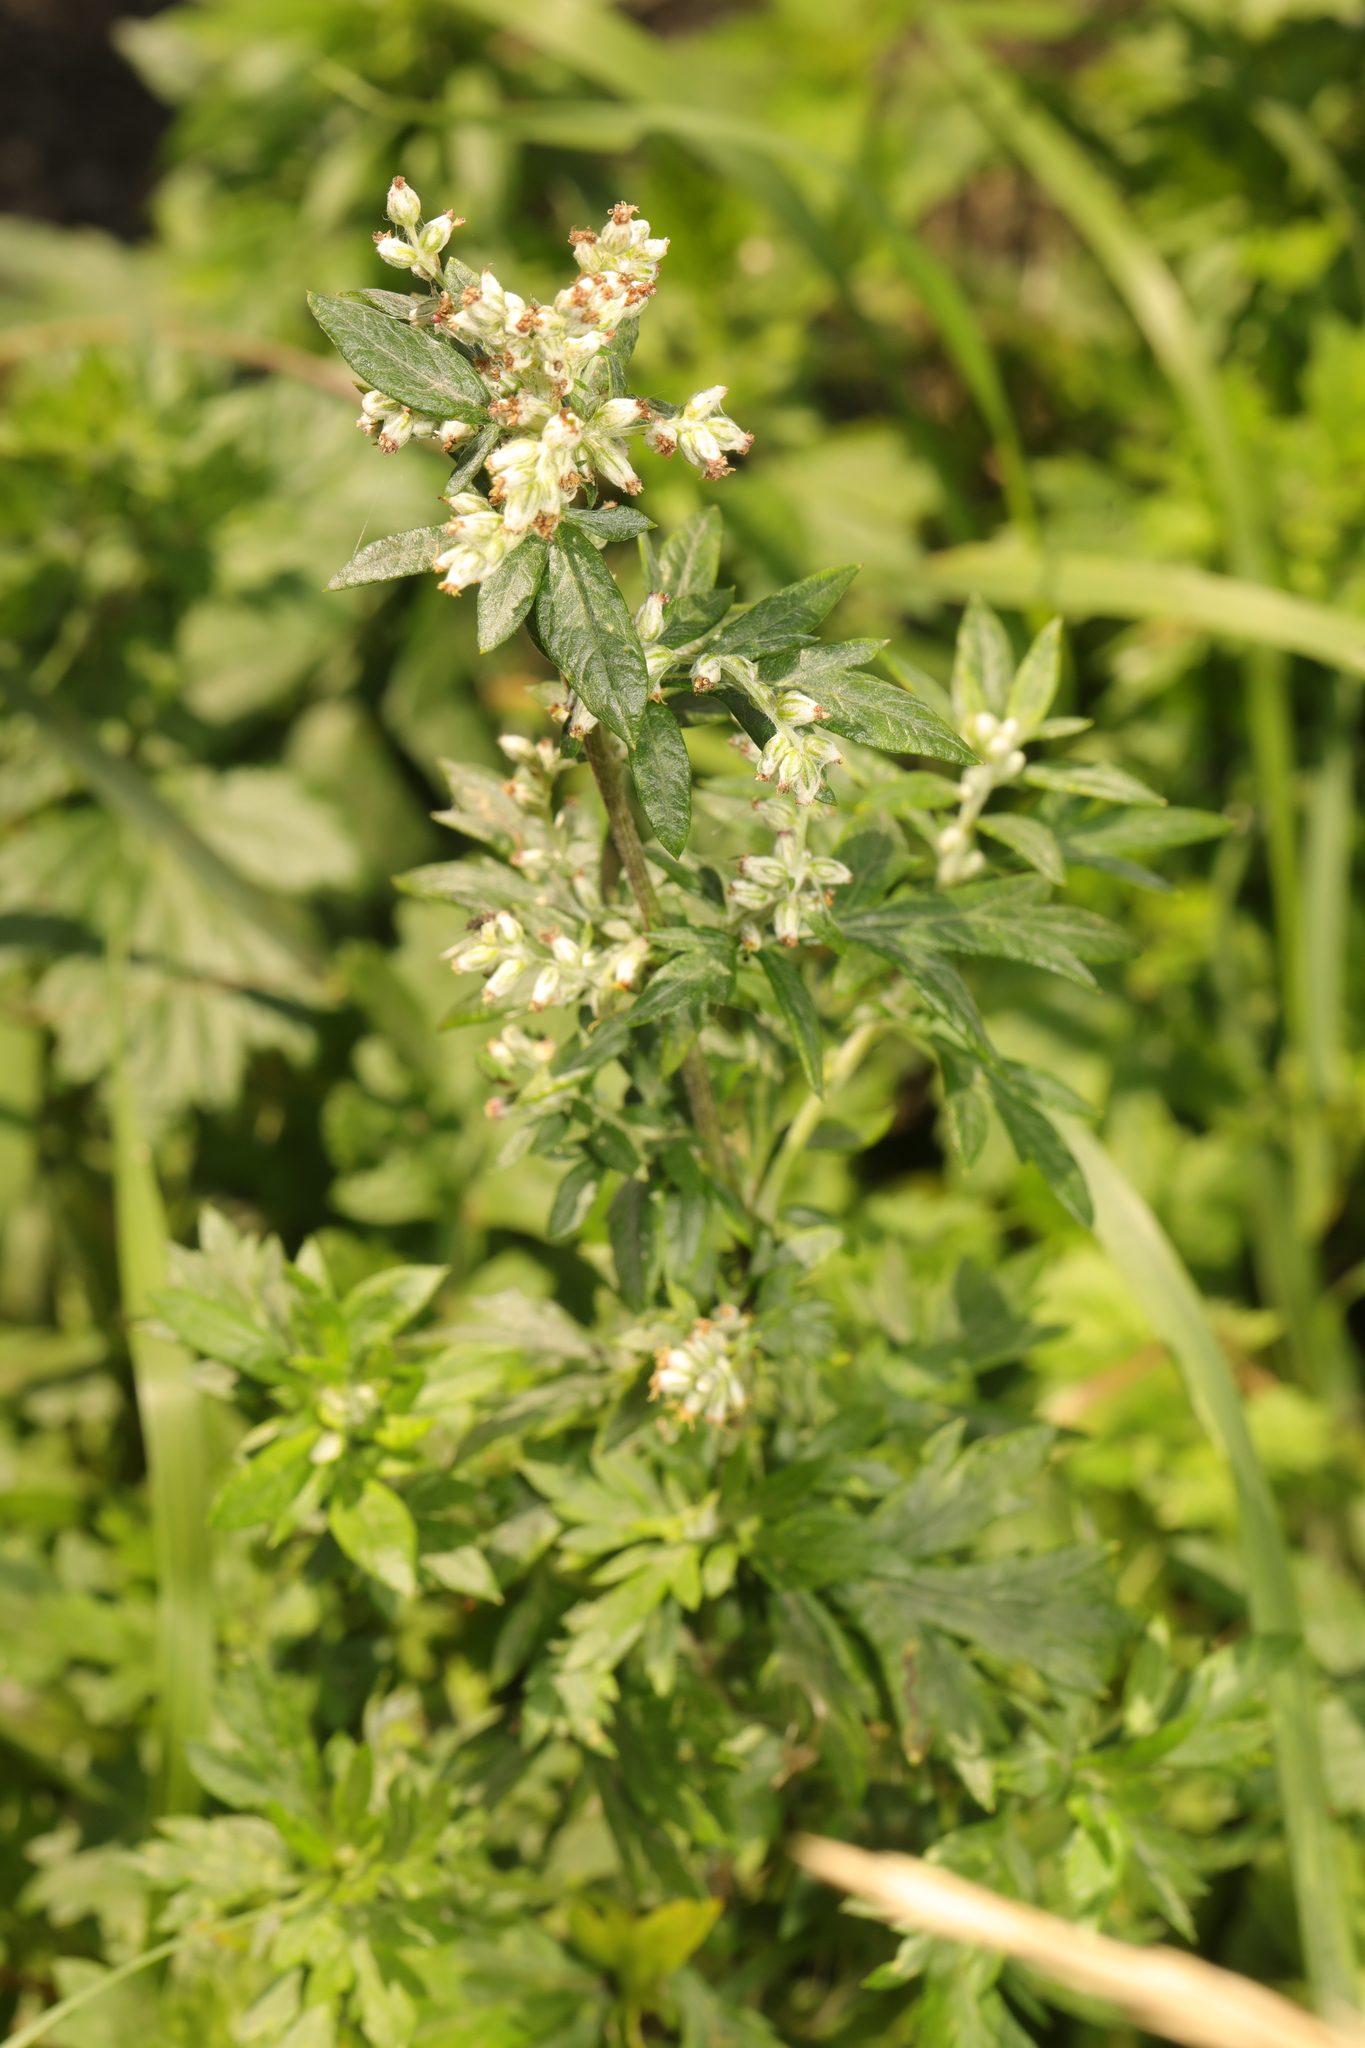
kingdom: Plantae
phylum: Tracheophyta
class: Magnoliopsida
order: Asterales
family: Asteraceae
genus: Artemisia
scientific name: Artemisia vulgaris
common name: Mugwort
